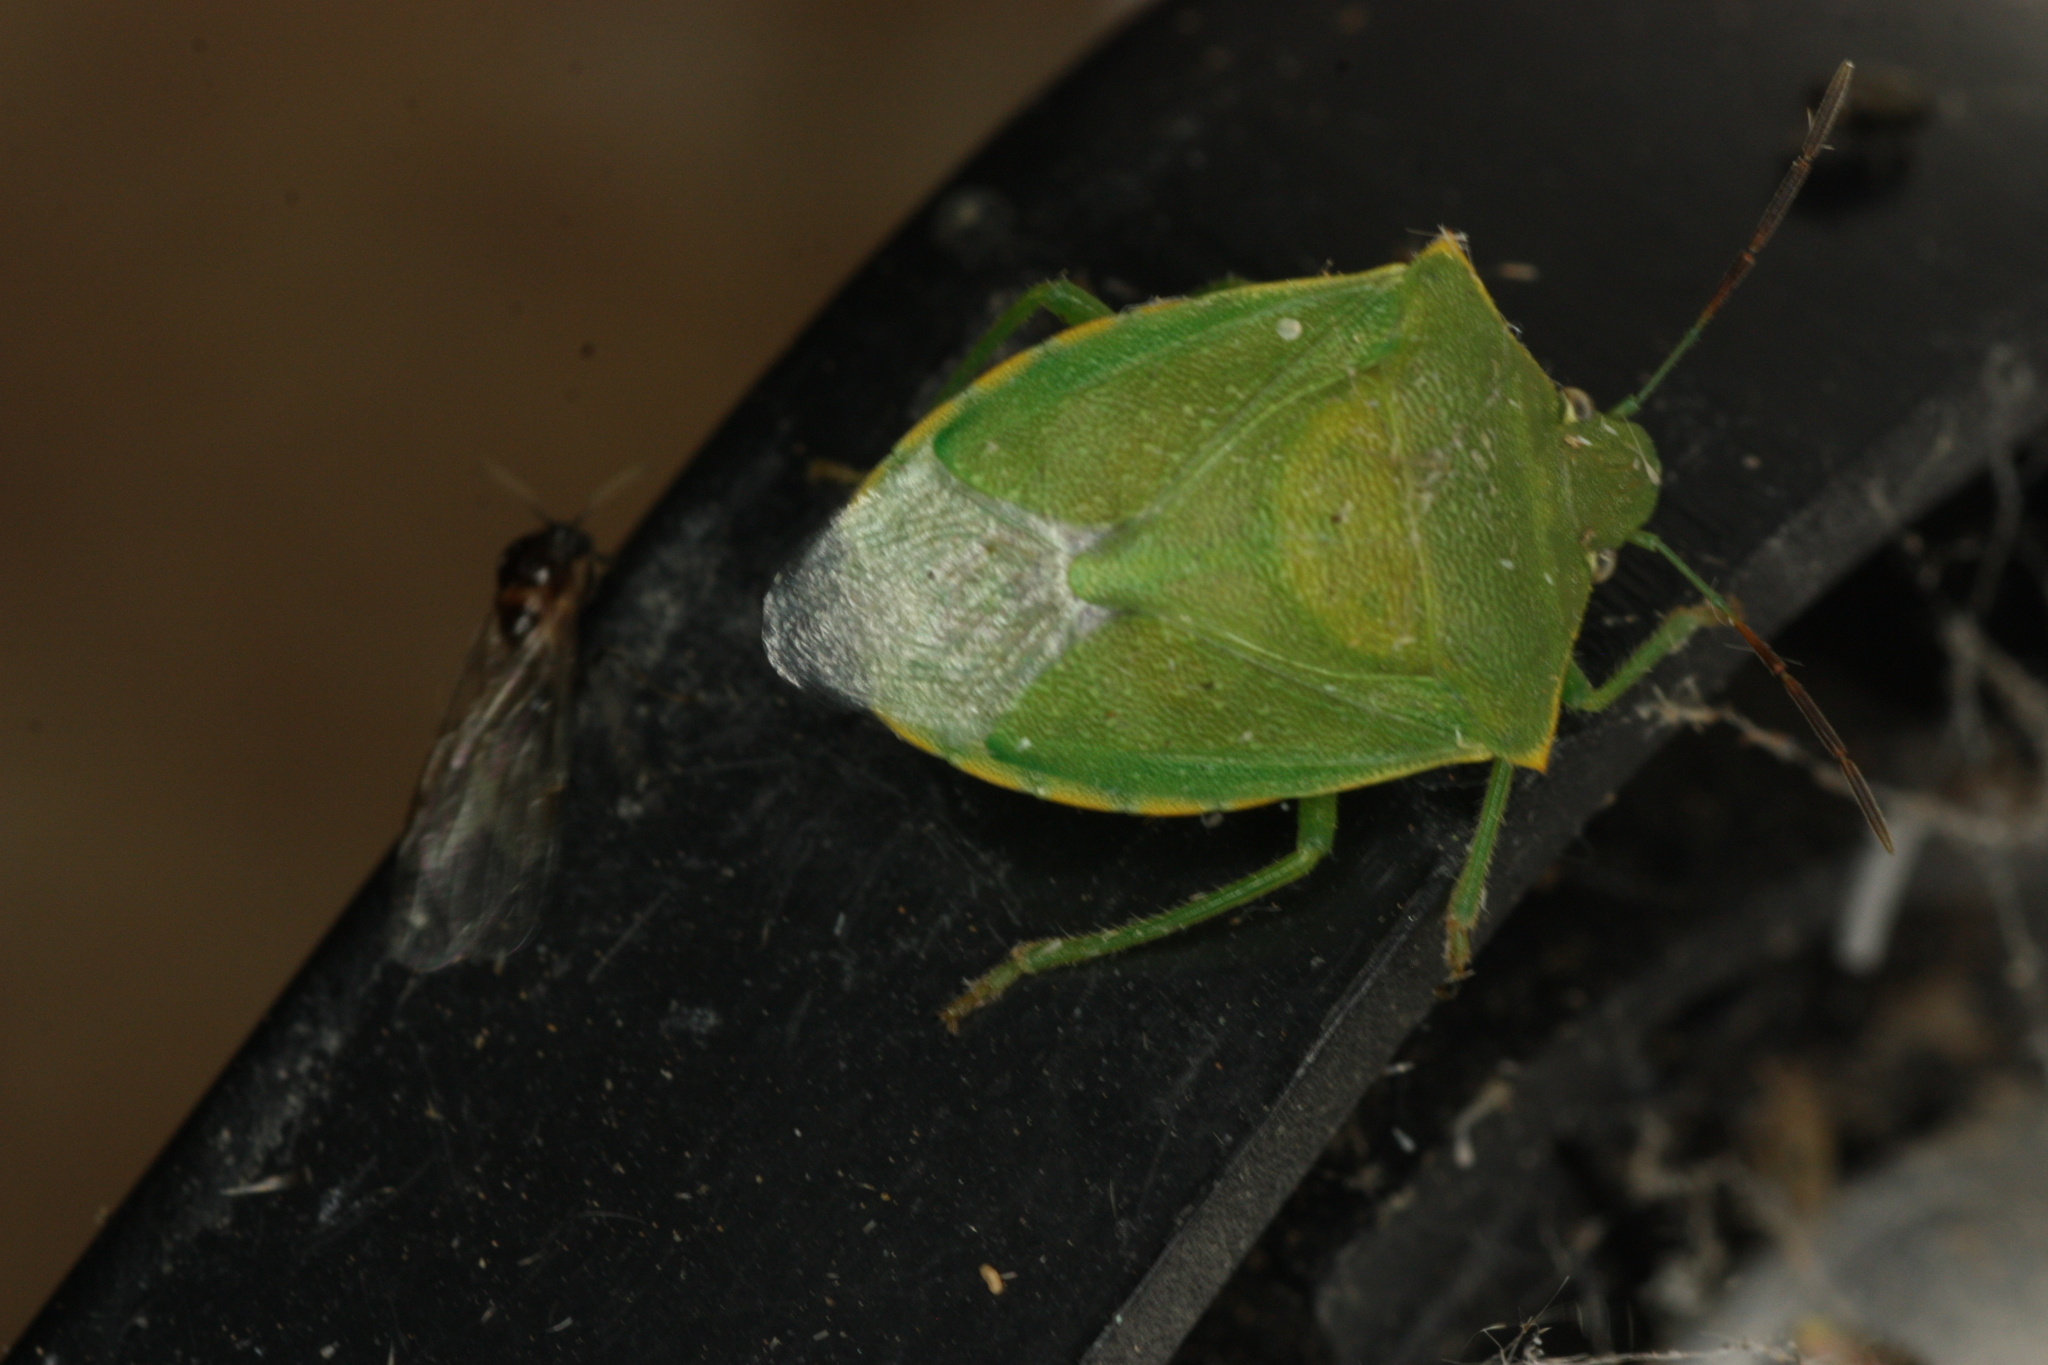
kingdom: Animalia
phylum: Arthropoda
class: Insecta
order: Hemiptera
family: Pentatomidae
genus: Thyanta
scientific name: Thyanta accerra
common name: Stink bug
